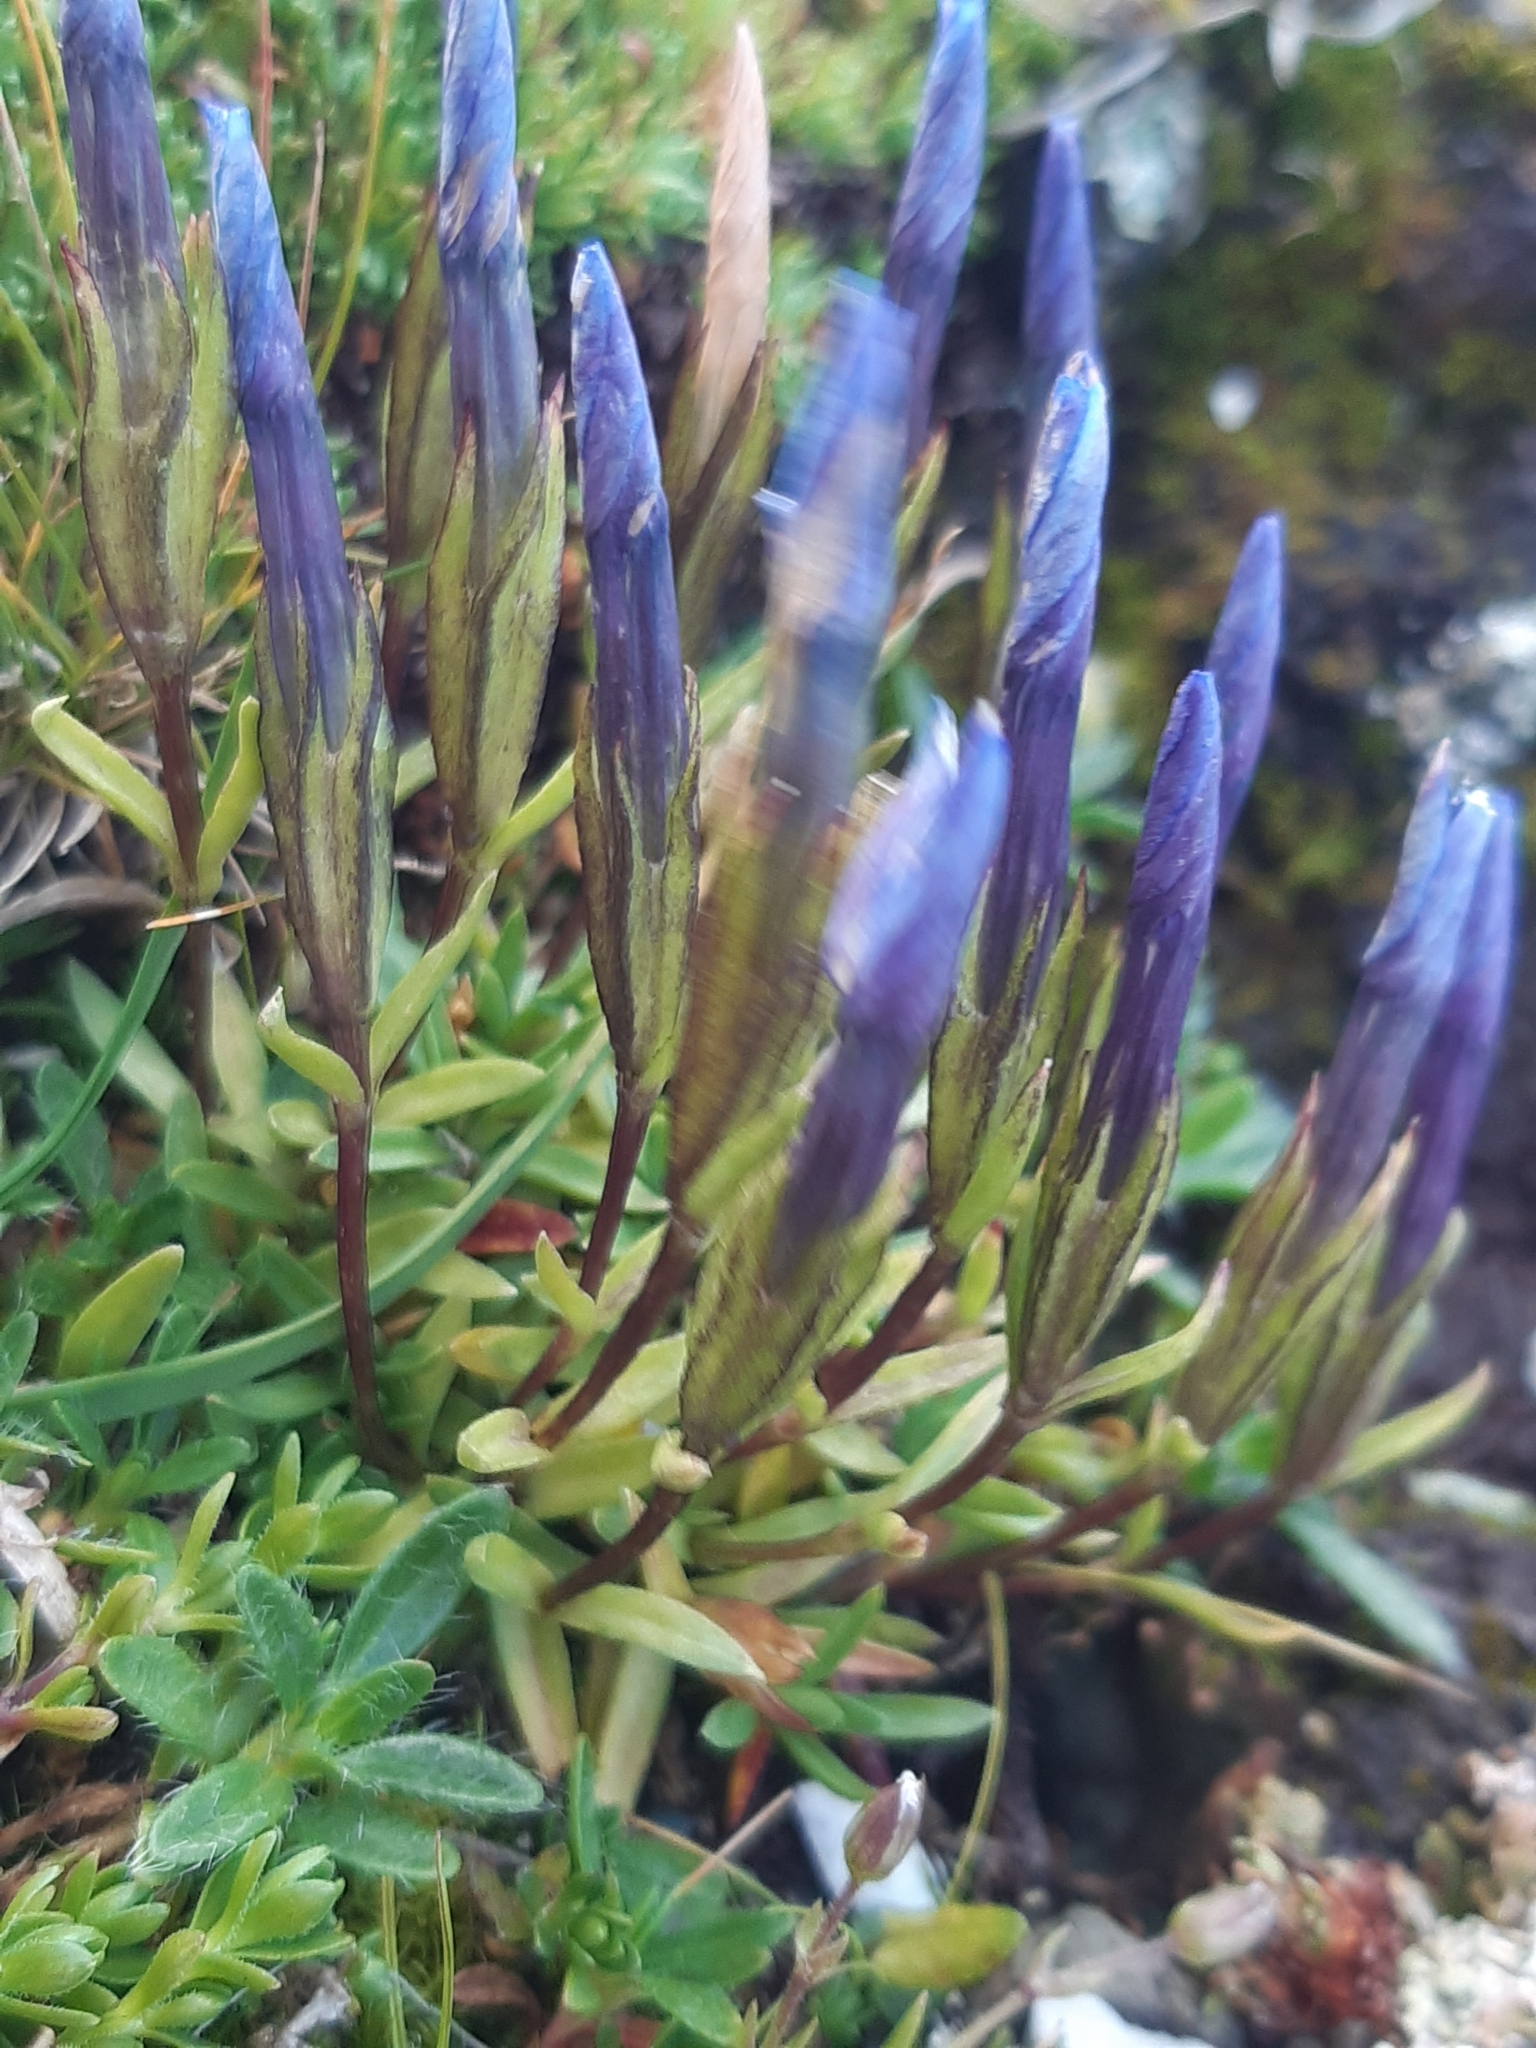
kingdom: Plantae
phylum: Tracheophyta
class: Magnoliopsida
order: Gentianales
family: Gentianaceae
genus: Gentiana
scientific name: Gentiana pumila
